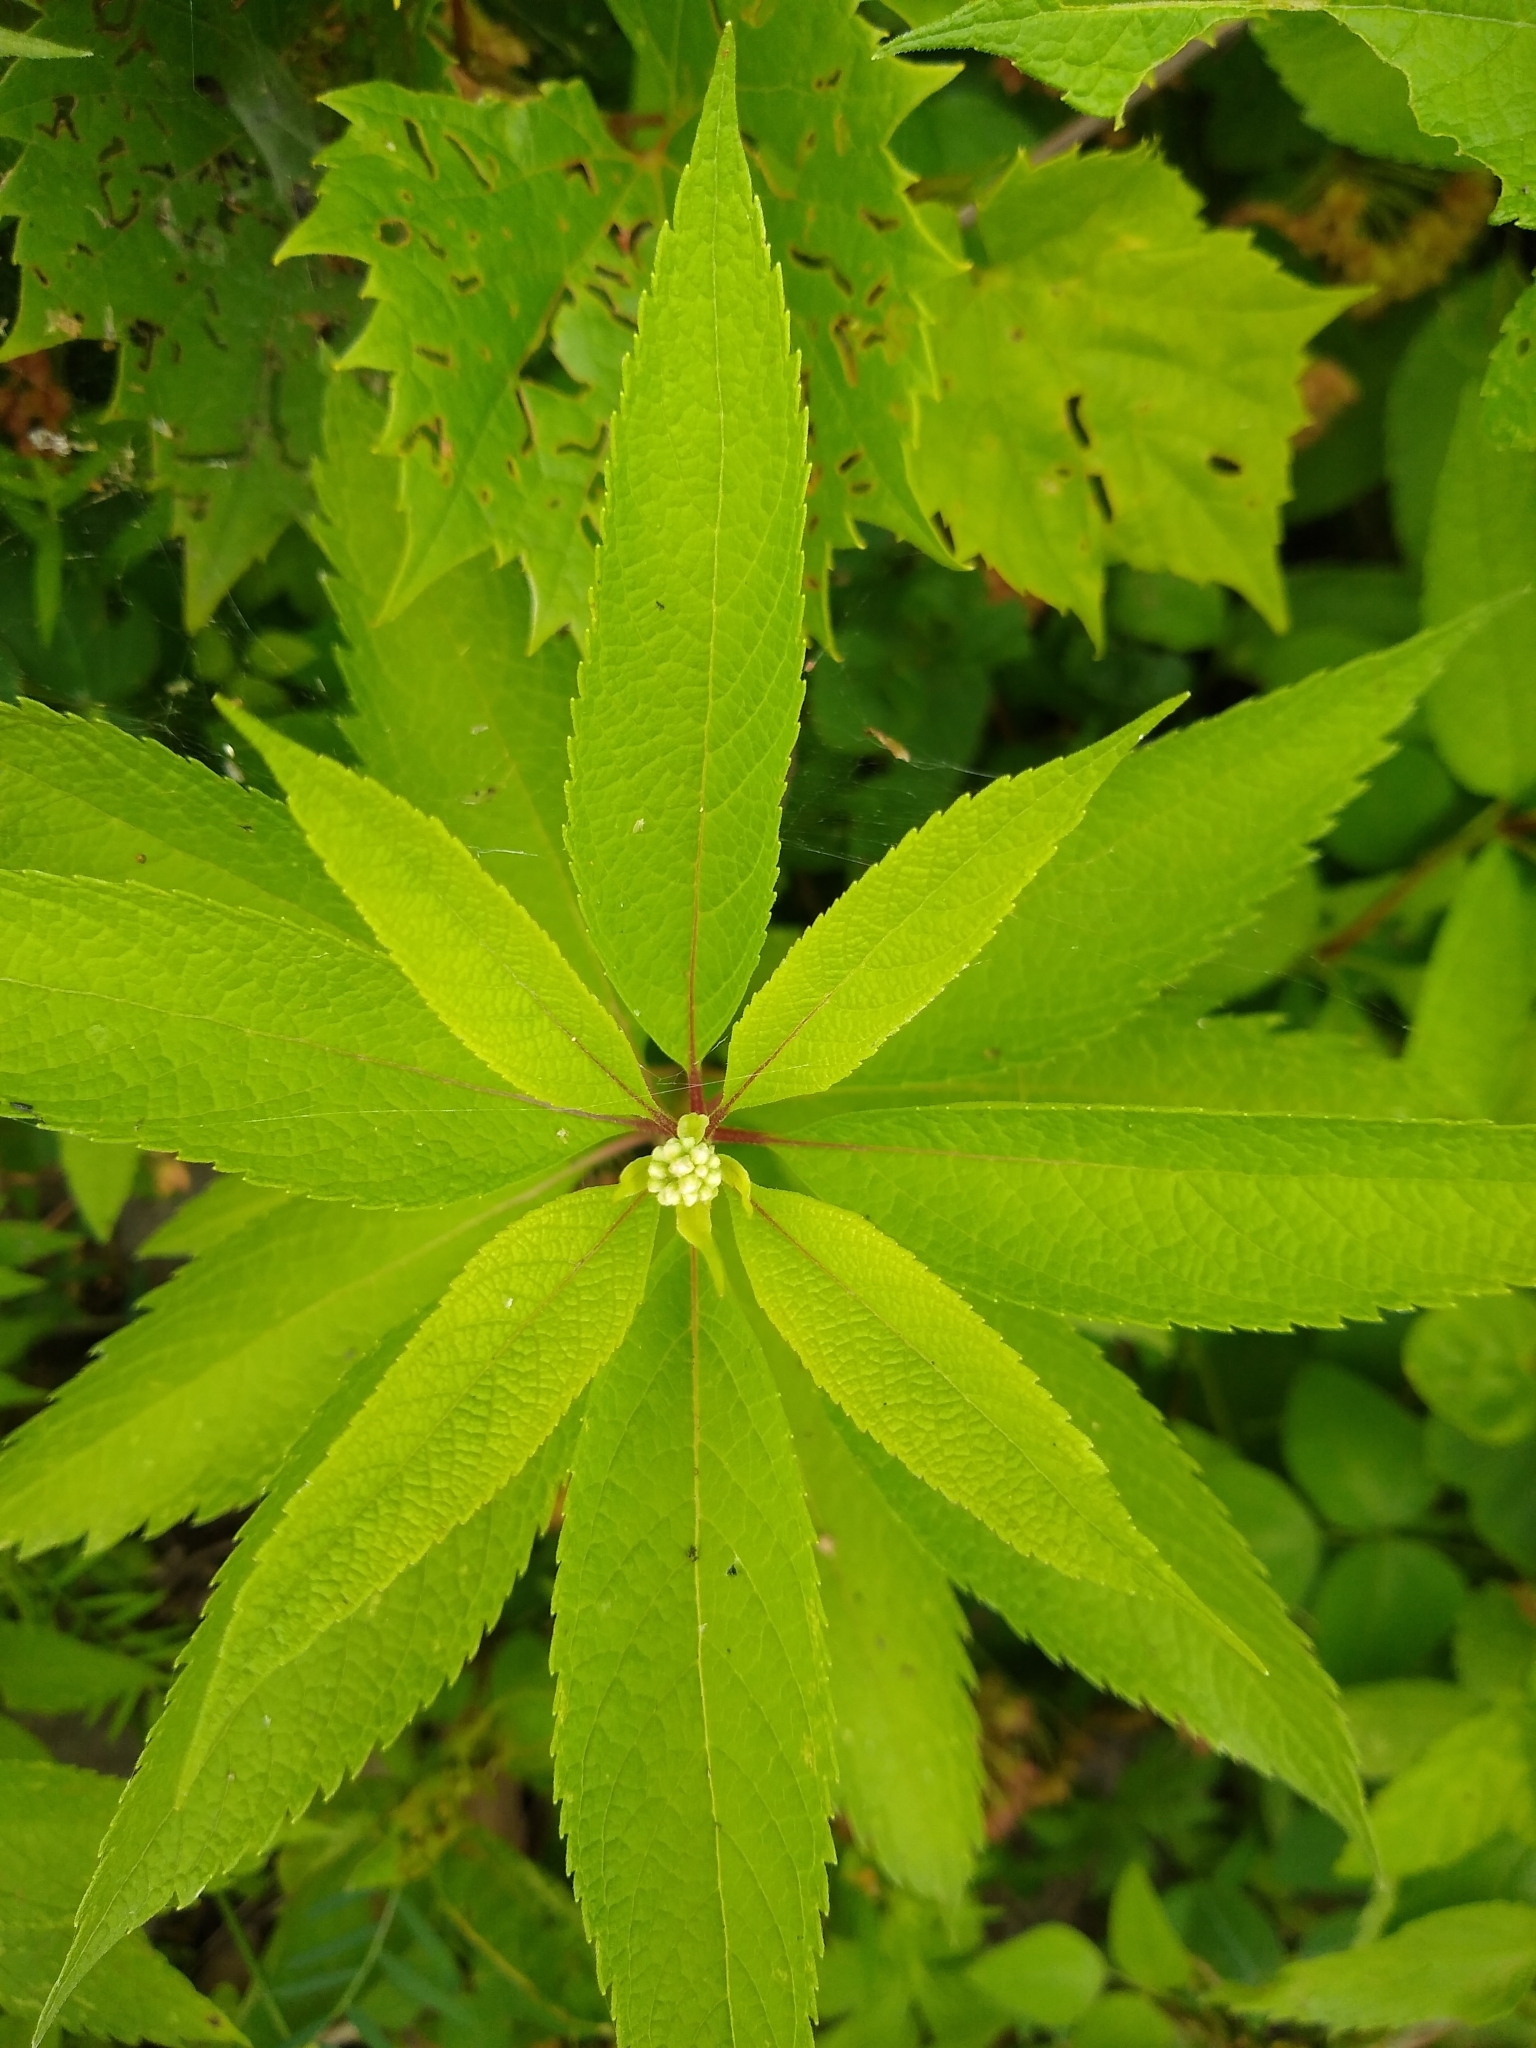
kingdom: Plantae
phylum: Tracheophyta
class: Magnoliopsida
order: Asterales
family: Asteraceae
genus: Eutrochium
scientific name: Eutrochium maculatum
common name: Spotted joe pye weed
